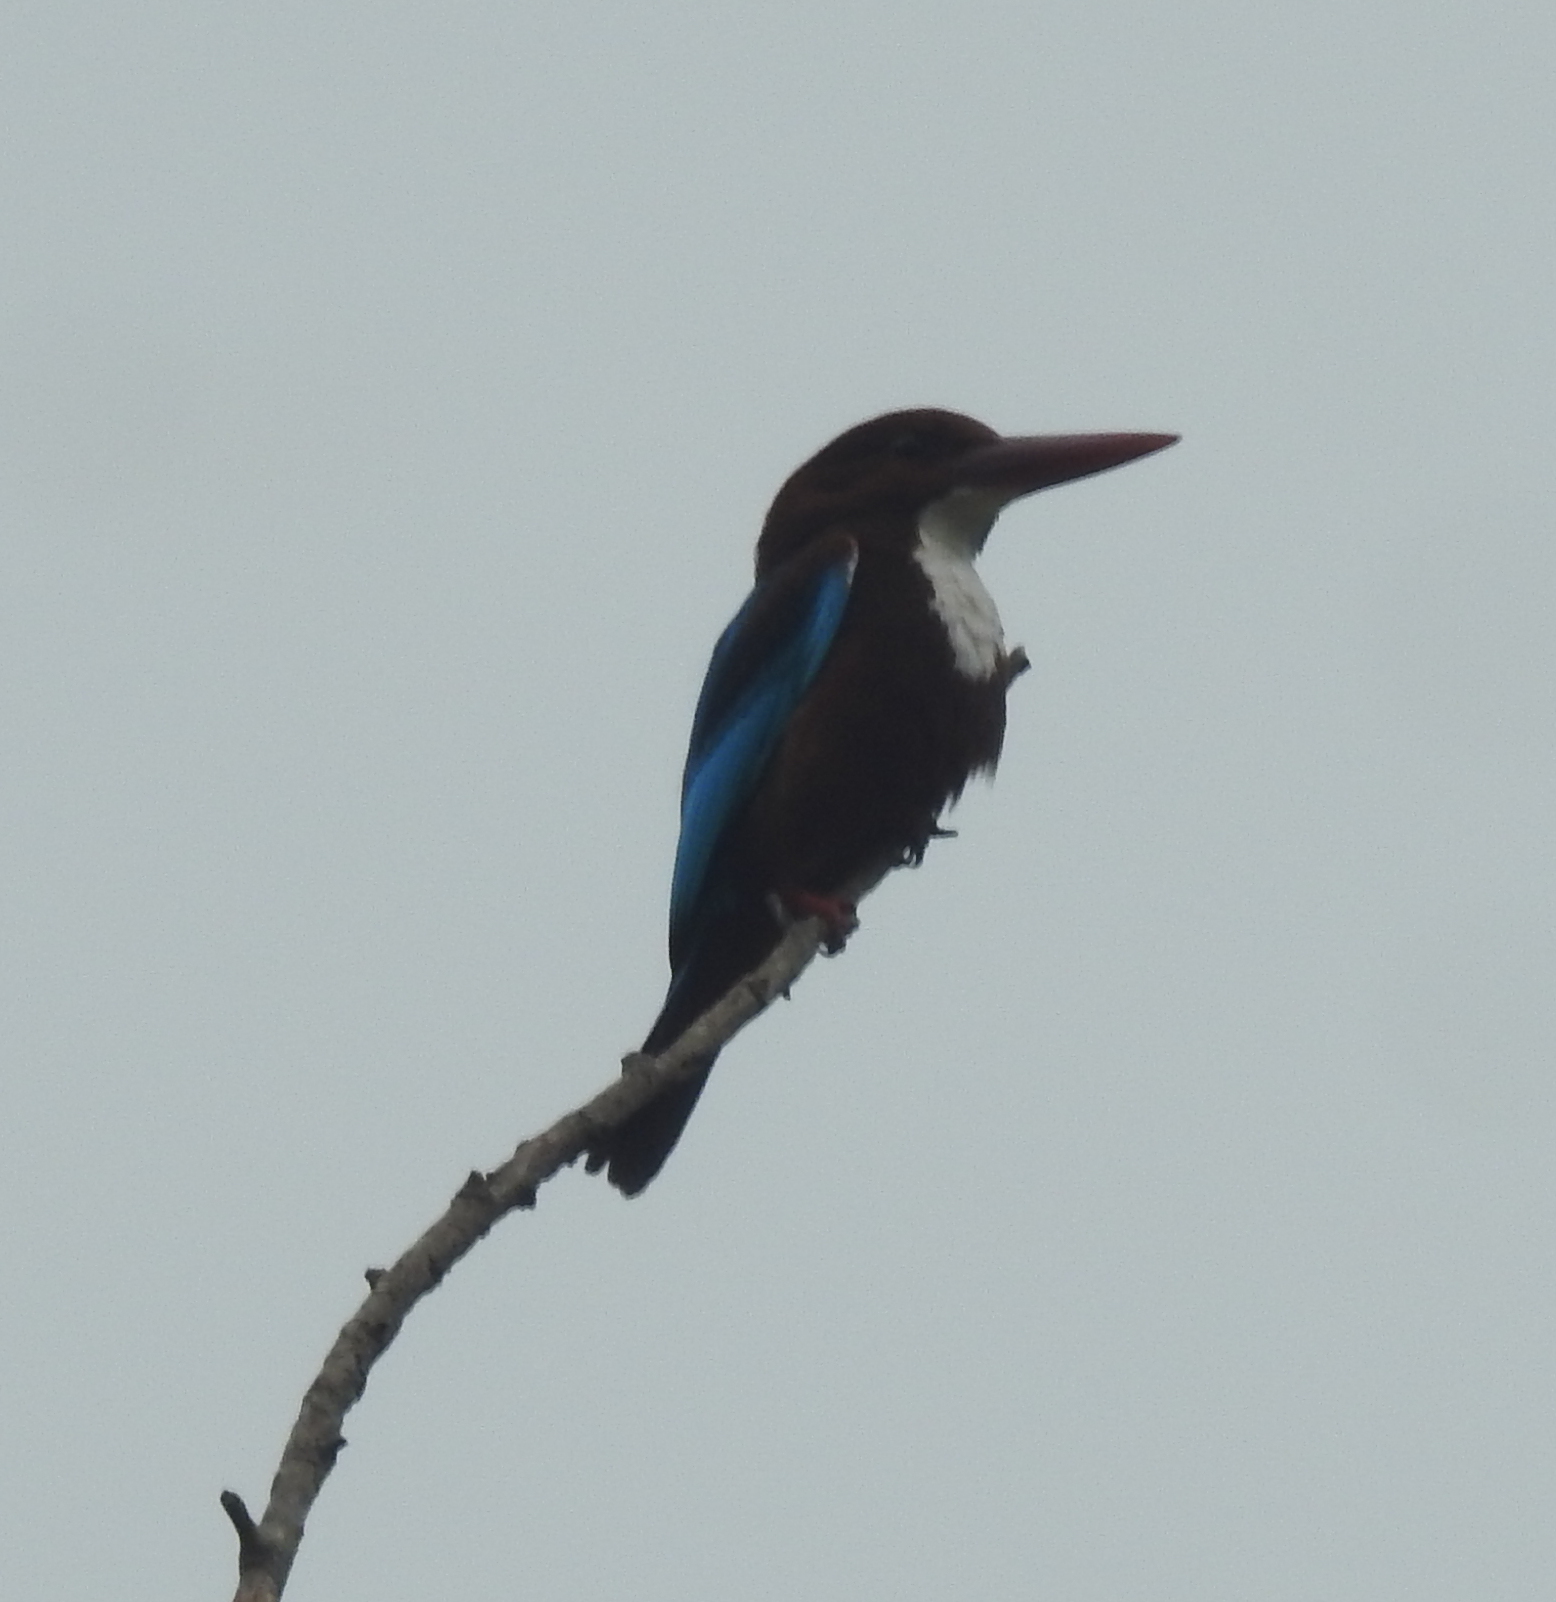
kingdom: Animalia
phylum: Chordata
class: Aves
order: Coraciiformes
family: Alcedinidae
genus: Halcyon
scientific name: Halcyon smyrnensis
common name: White-throated kingfisher
